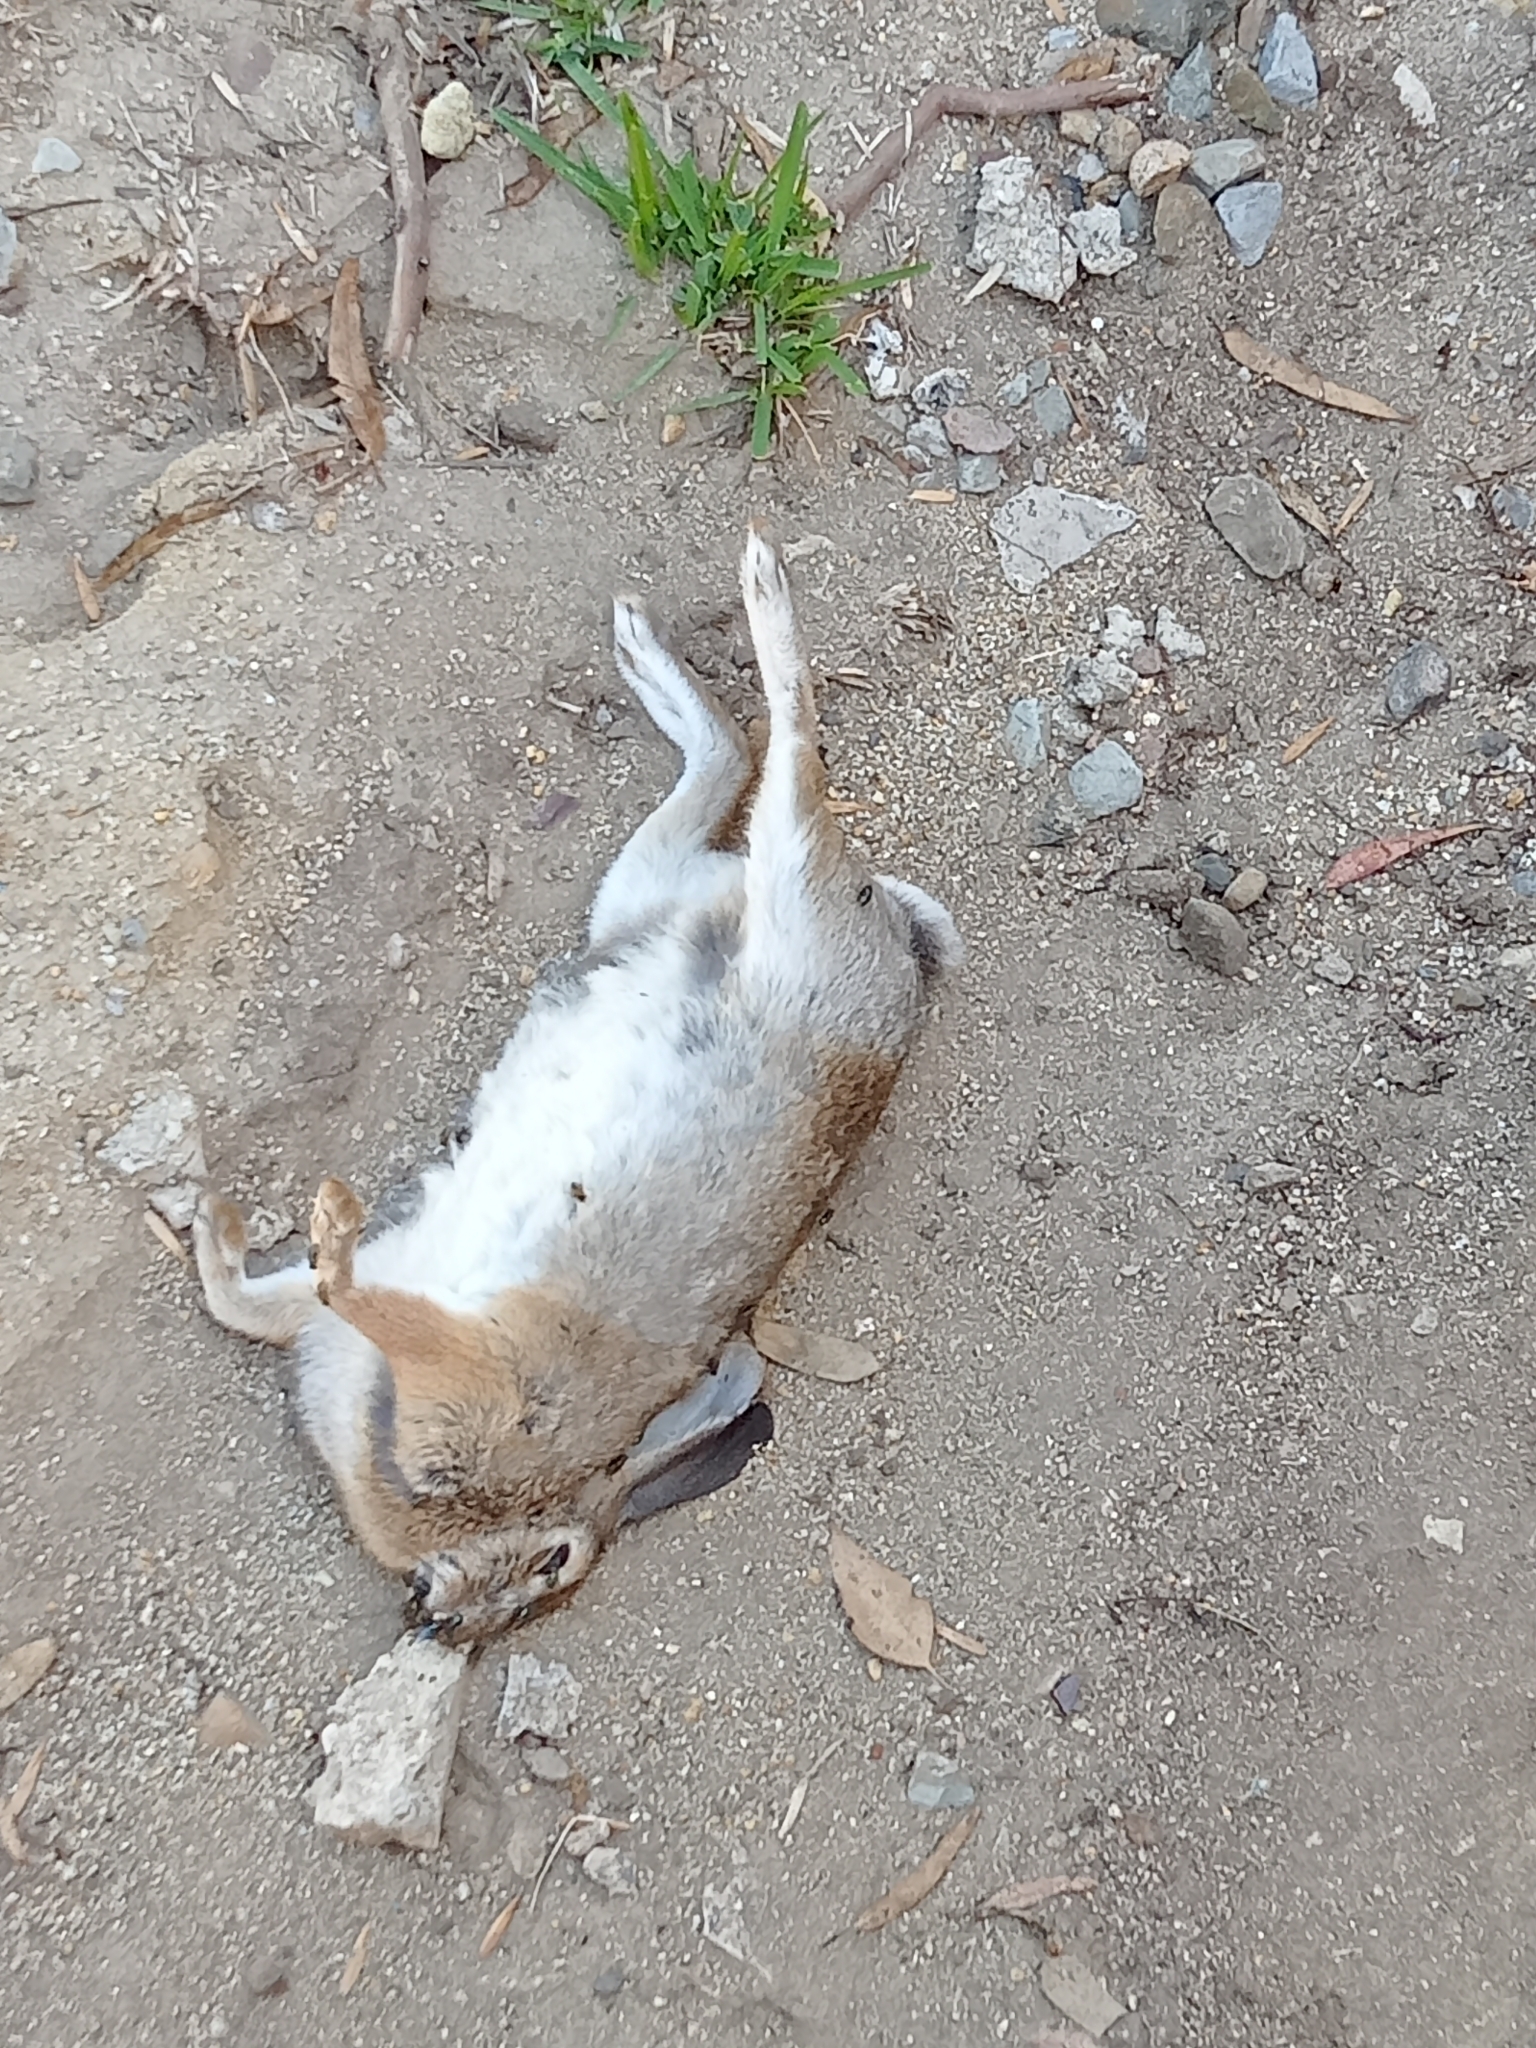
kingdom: Animalia
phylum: Chordata
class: Mammalia
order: Lagomorpha
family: Leporidae
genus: Sylvilagus
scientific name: Sylvilagus audubonii
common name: Desert cottontail
